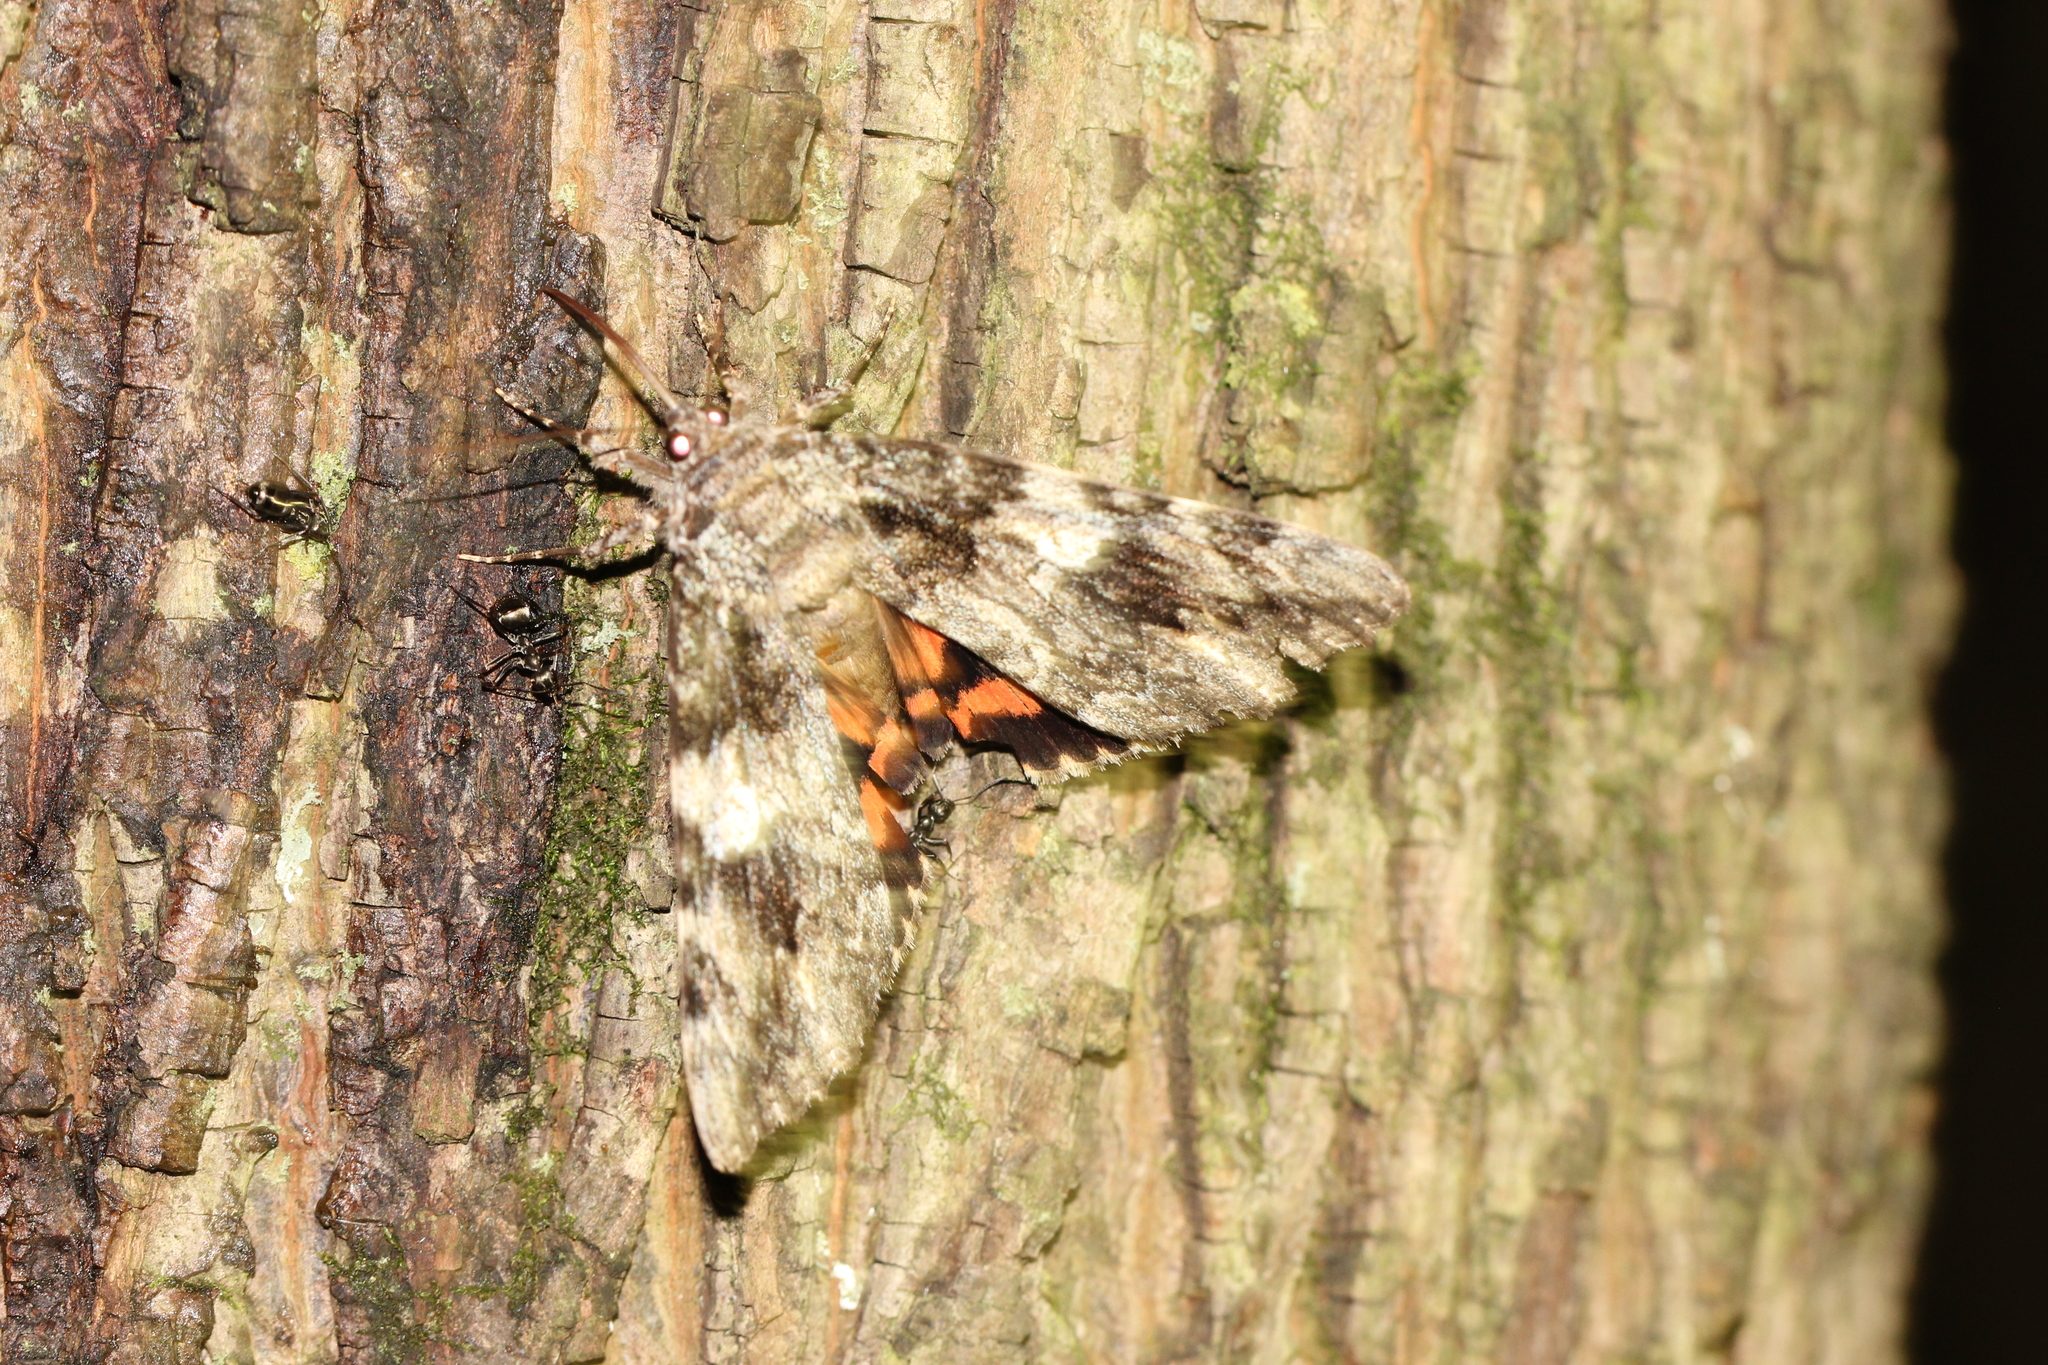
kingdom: Animalia
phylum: Arthropoda
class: Insecta
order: Lepidoptera
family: Erebidae
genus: Catocala
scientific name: Catocala ilia
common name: Ilia underwing
